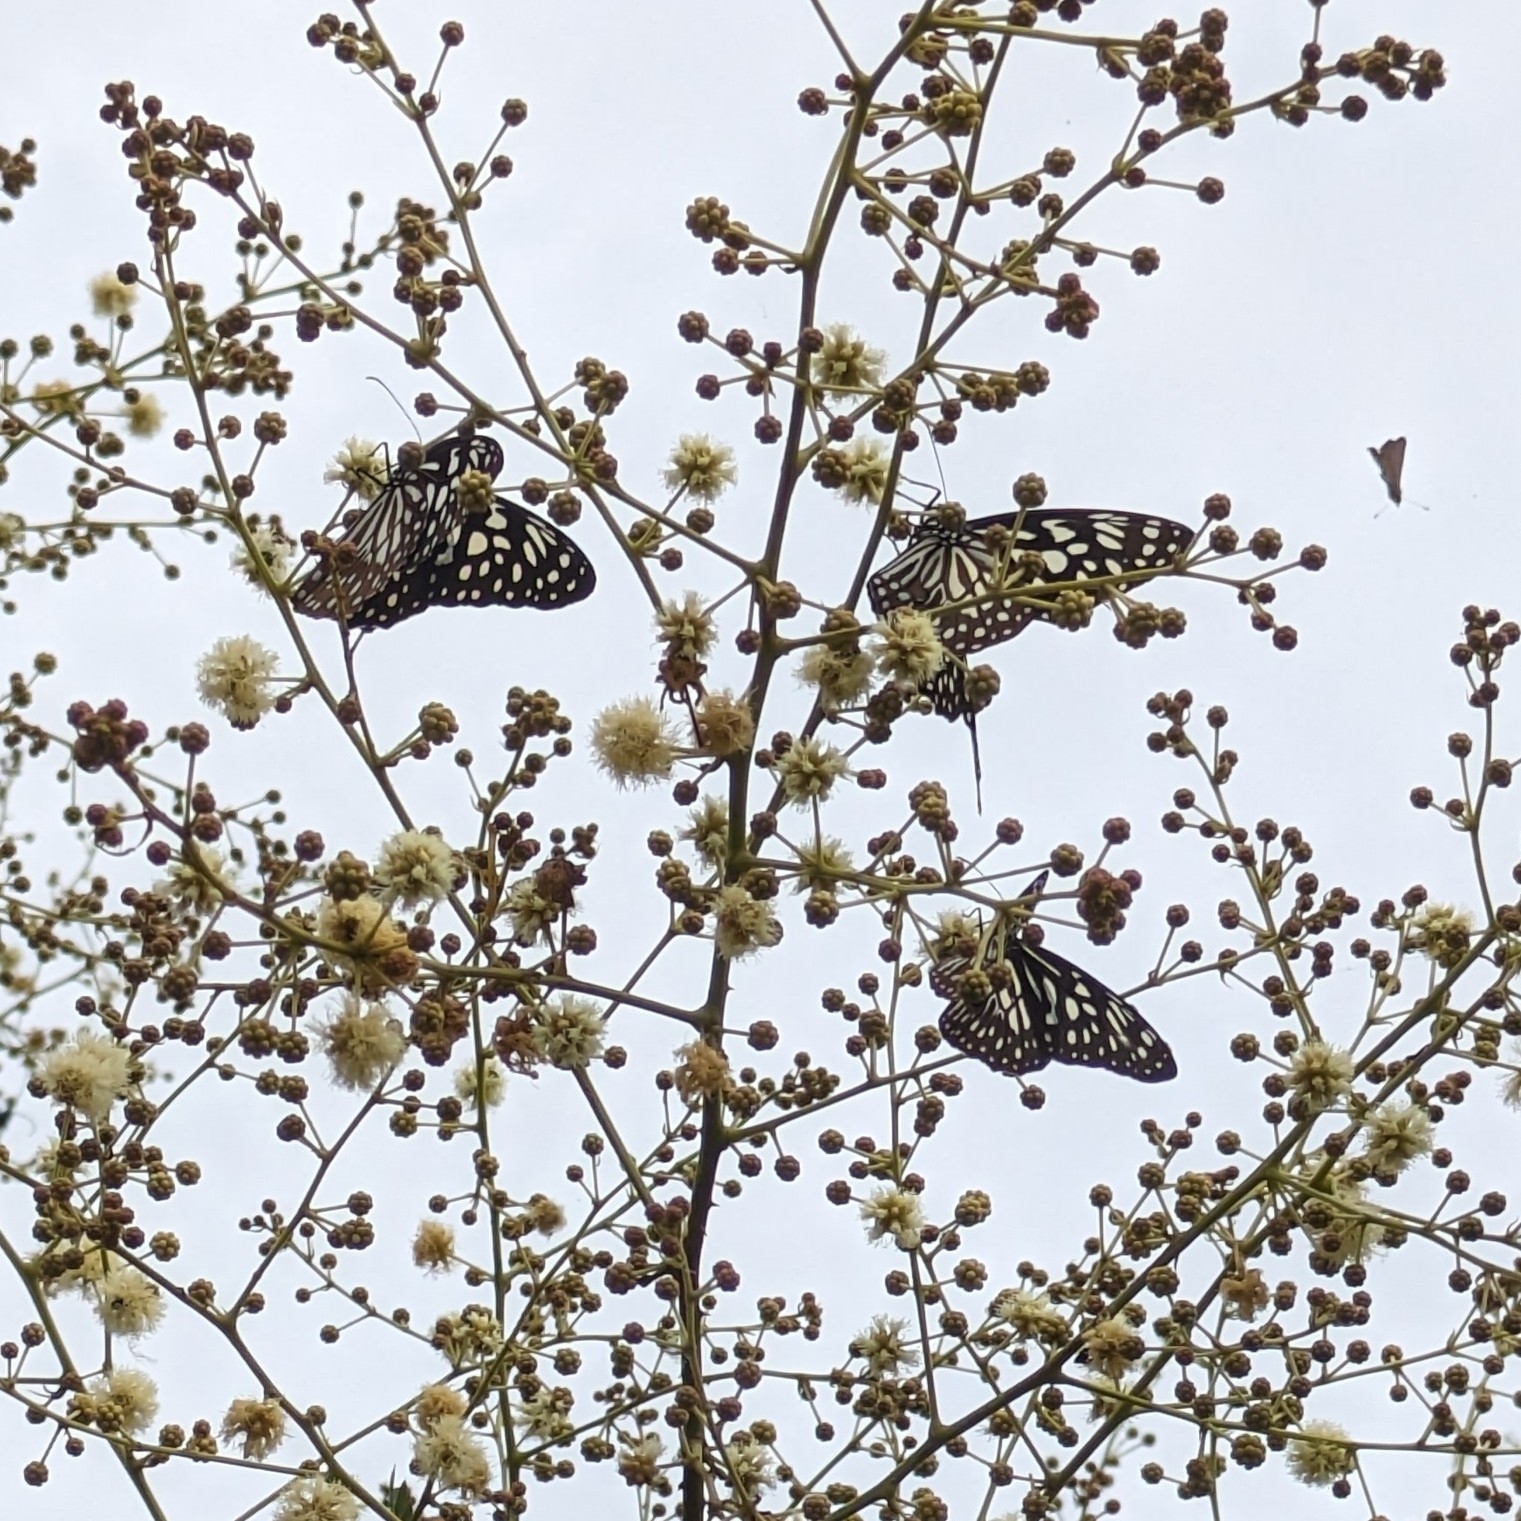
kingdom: Animalia
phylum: Arthropoda
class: Insecta
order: Lepidoptera
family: Nymphalidae
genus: Tirumala
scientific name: Tirumala septentrionis
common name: Dark blue tiger butterfly
